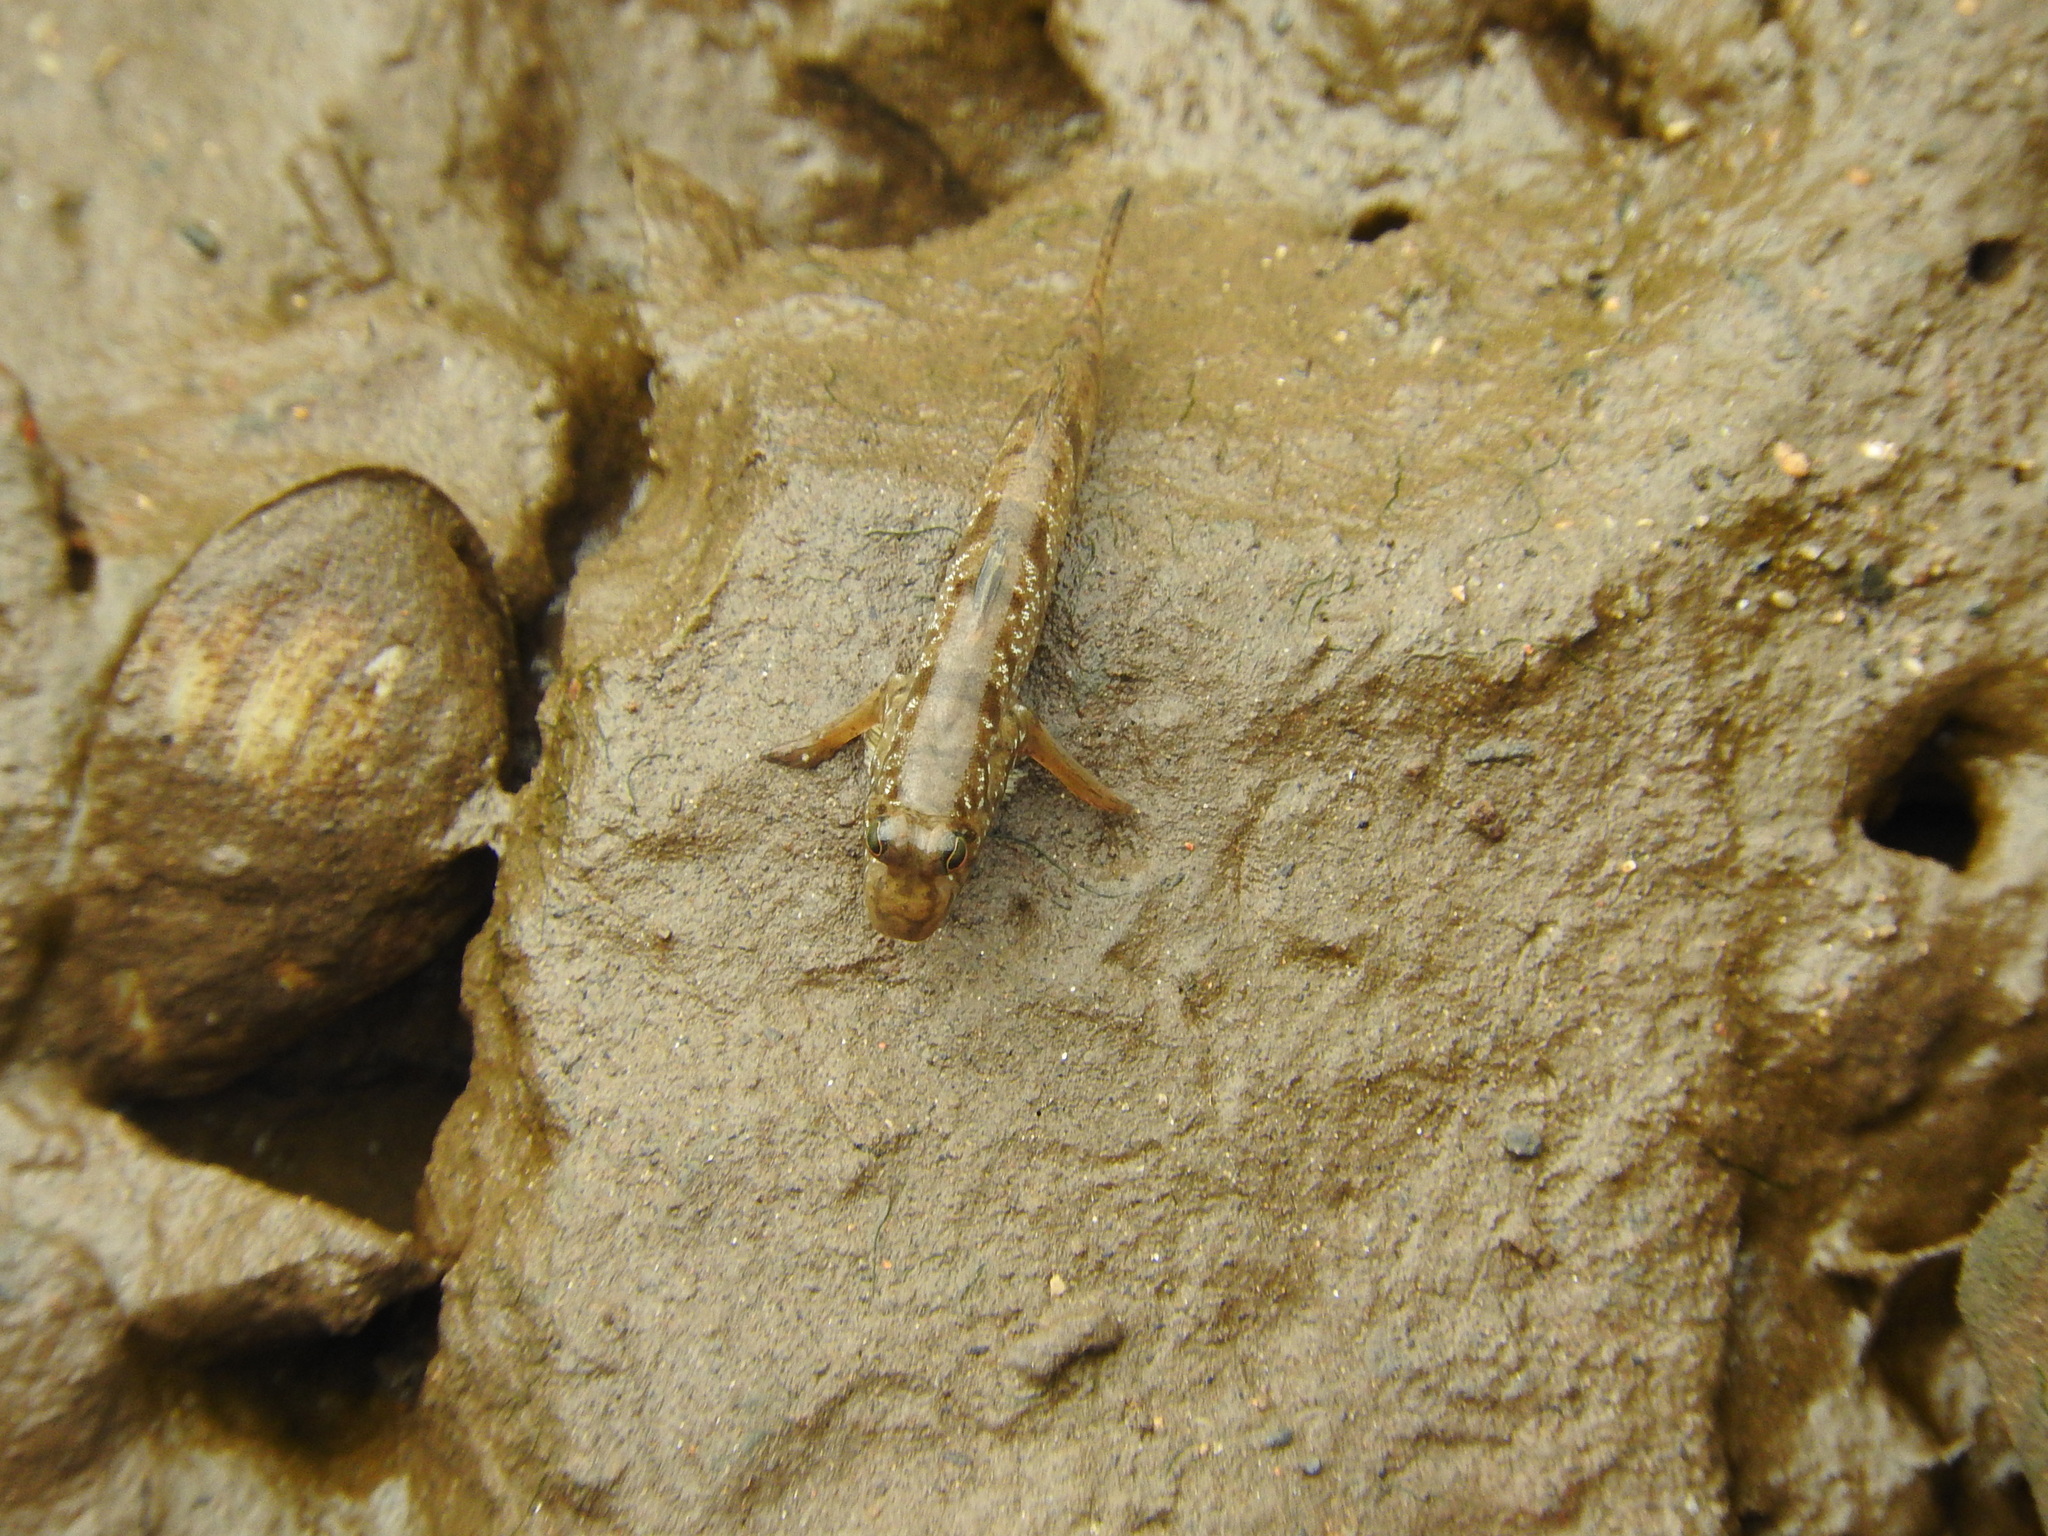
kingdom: Animalia
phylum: Chordata
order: Perciformes
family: Gobiidae
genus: Periophthalmus
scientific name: Periophthalmus barbarus
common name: Atlantic mudskipper
